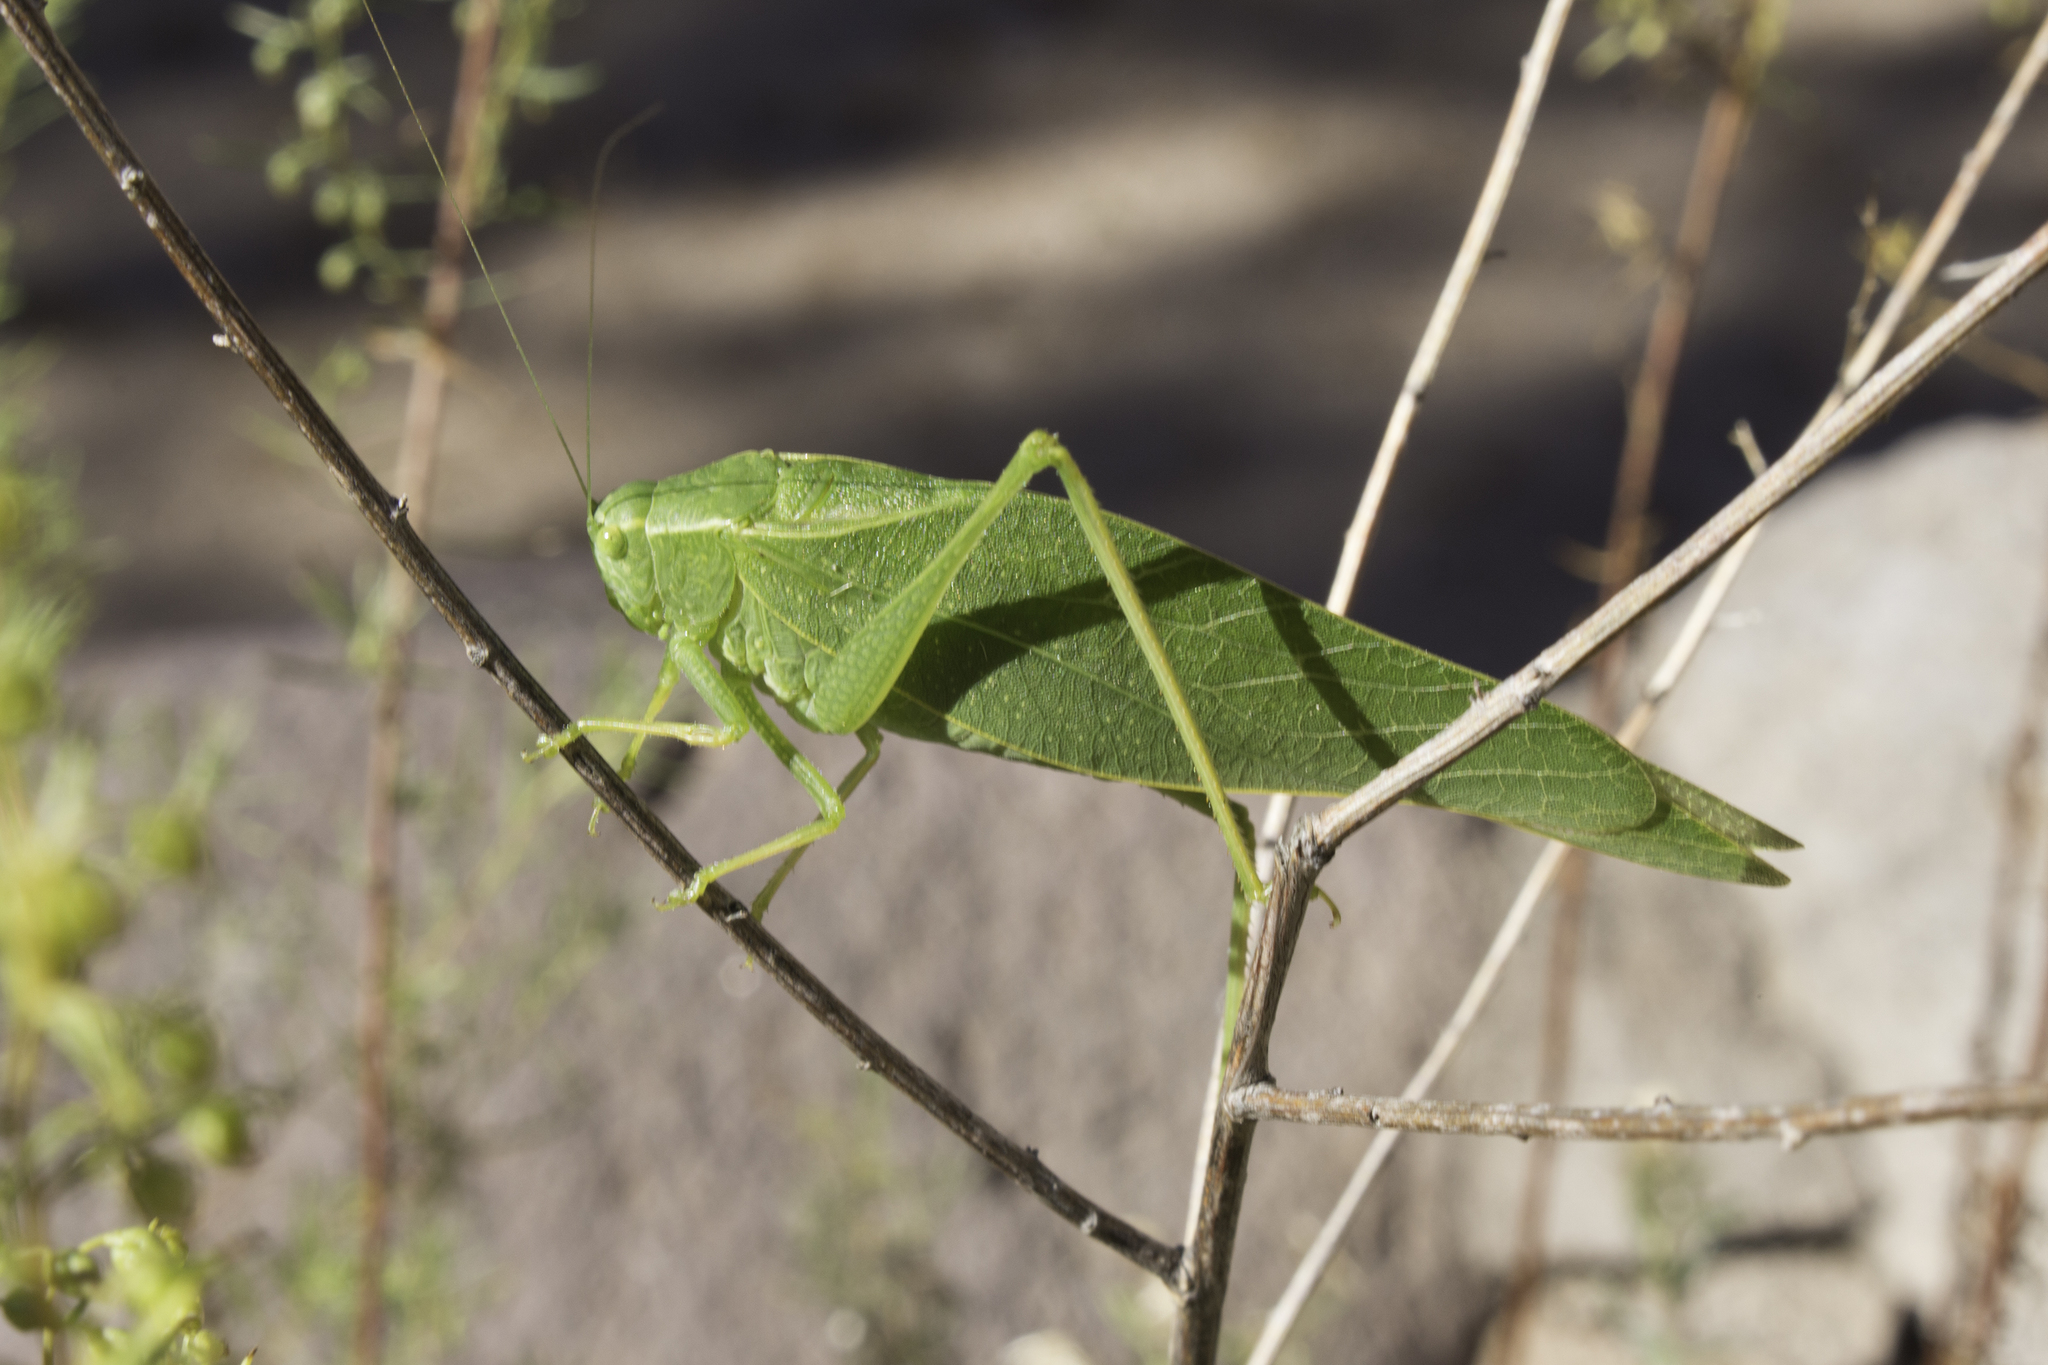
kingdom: Animalia
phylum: Arthropoda
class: Insecta
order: Orthoptera
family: Tettigoniidae
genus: Microcentrum
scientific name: Microcentrum rhombifolium
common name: Broad-winged katydid
